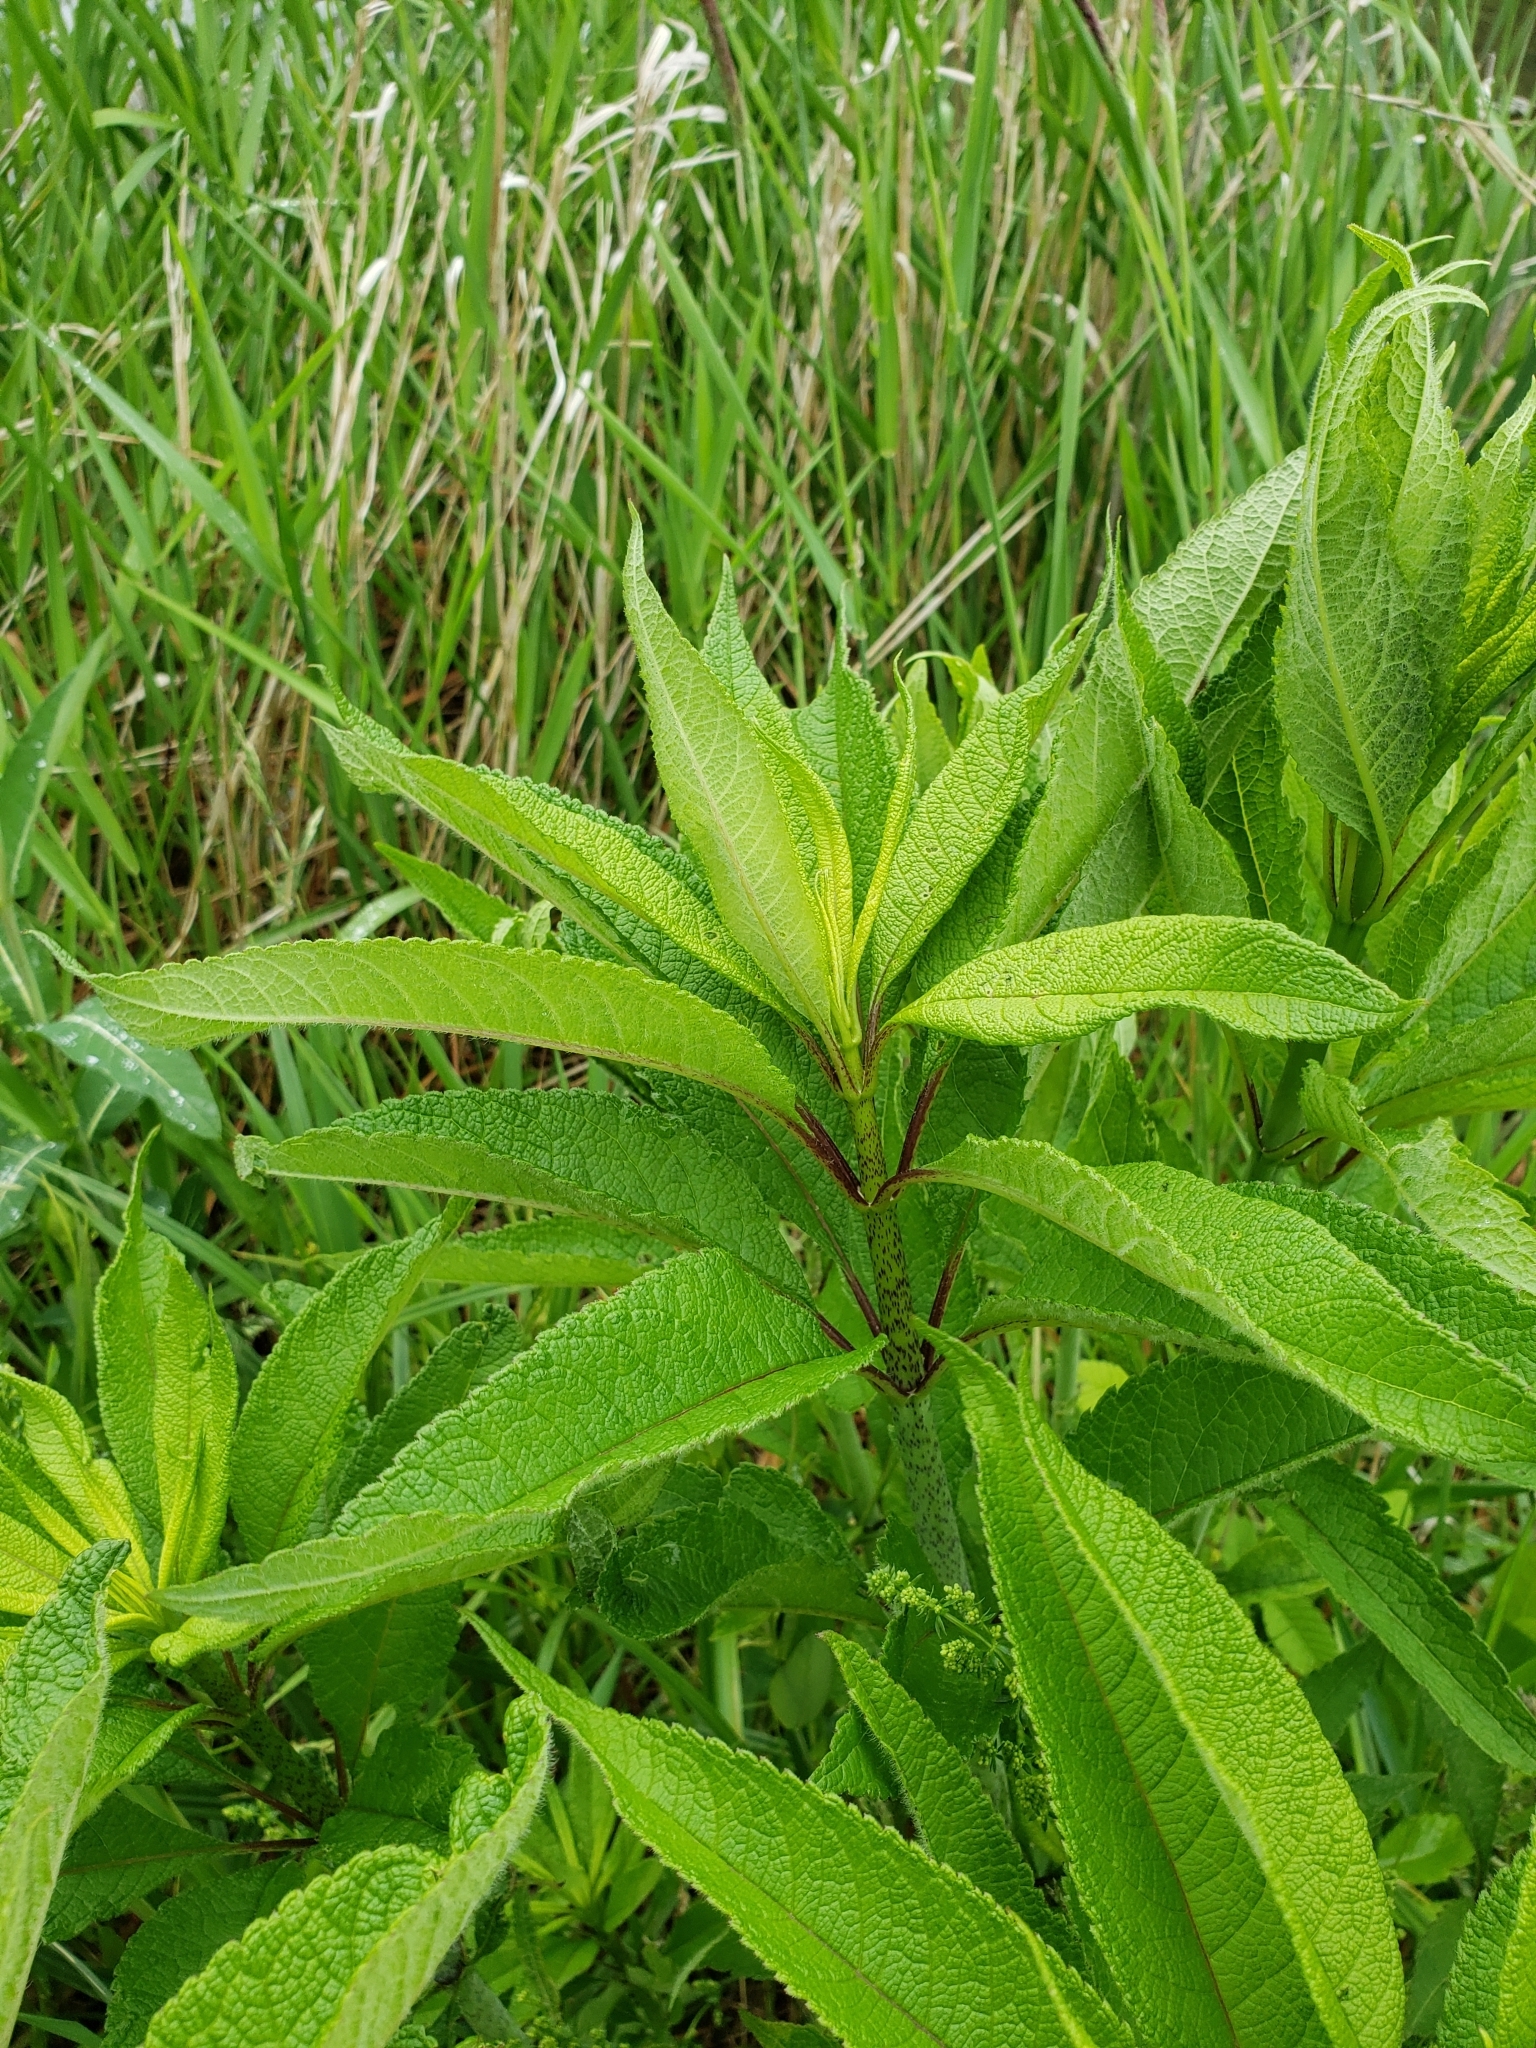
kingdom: Plantae
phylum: Tracheophyta
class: Magnoliopsida
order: Asterales
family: Asteraceae
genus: Eutrochium
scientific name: Eutrochium fistulosum
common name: Trumpetweed
